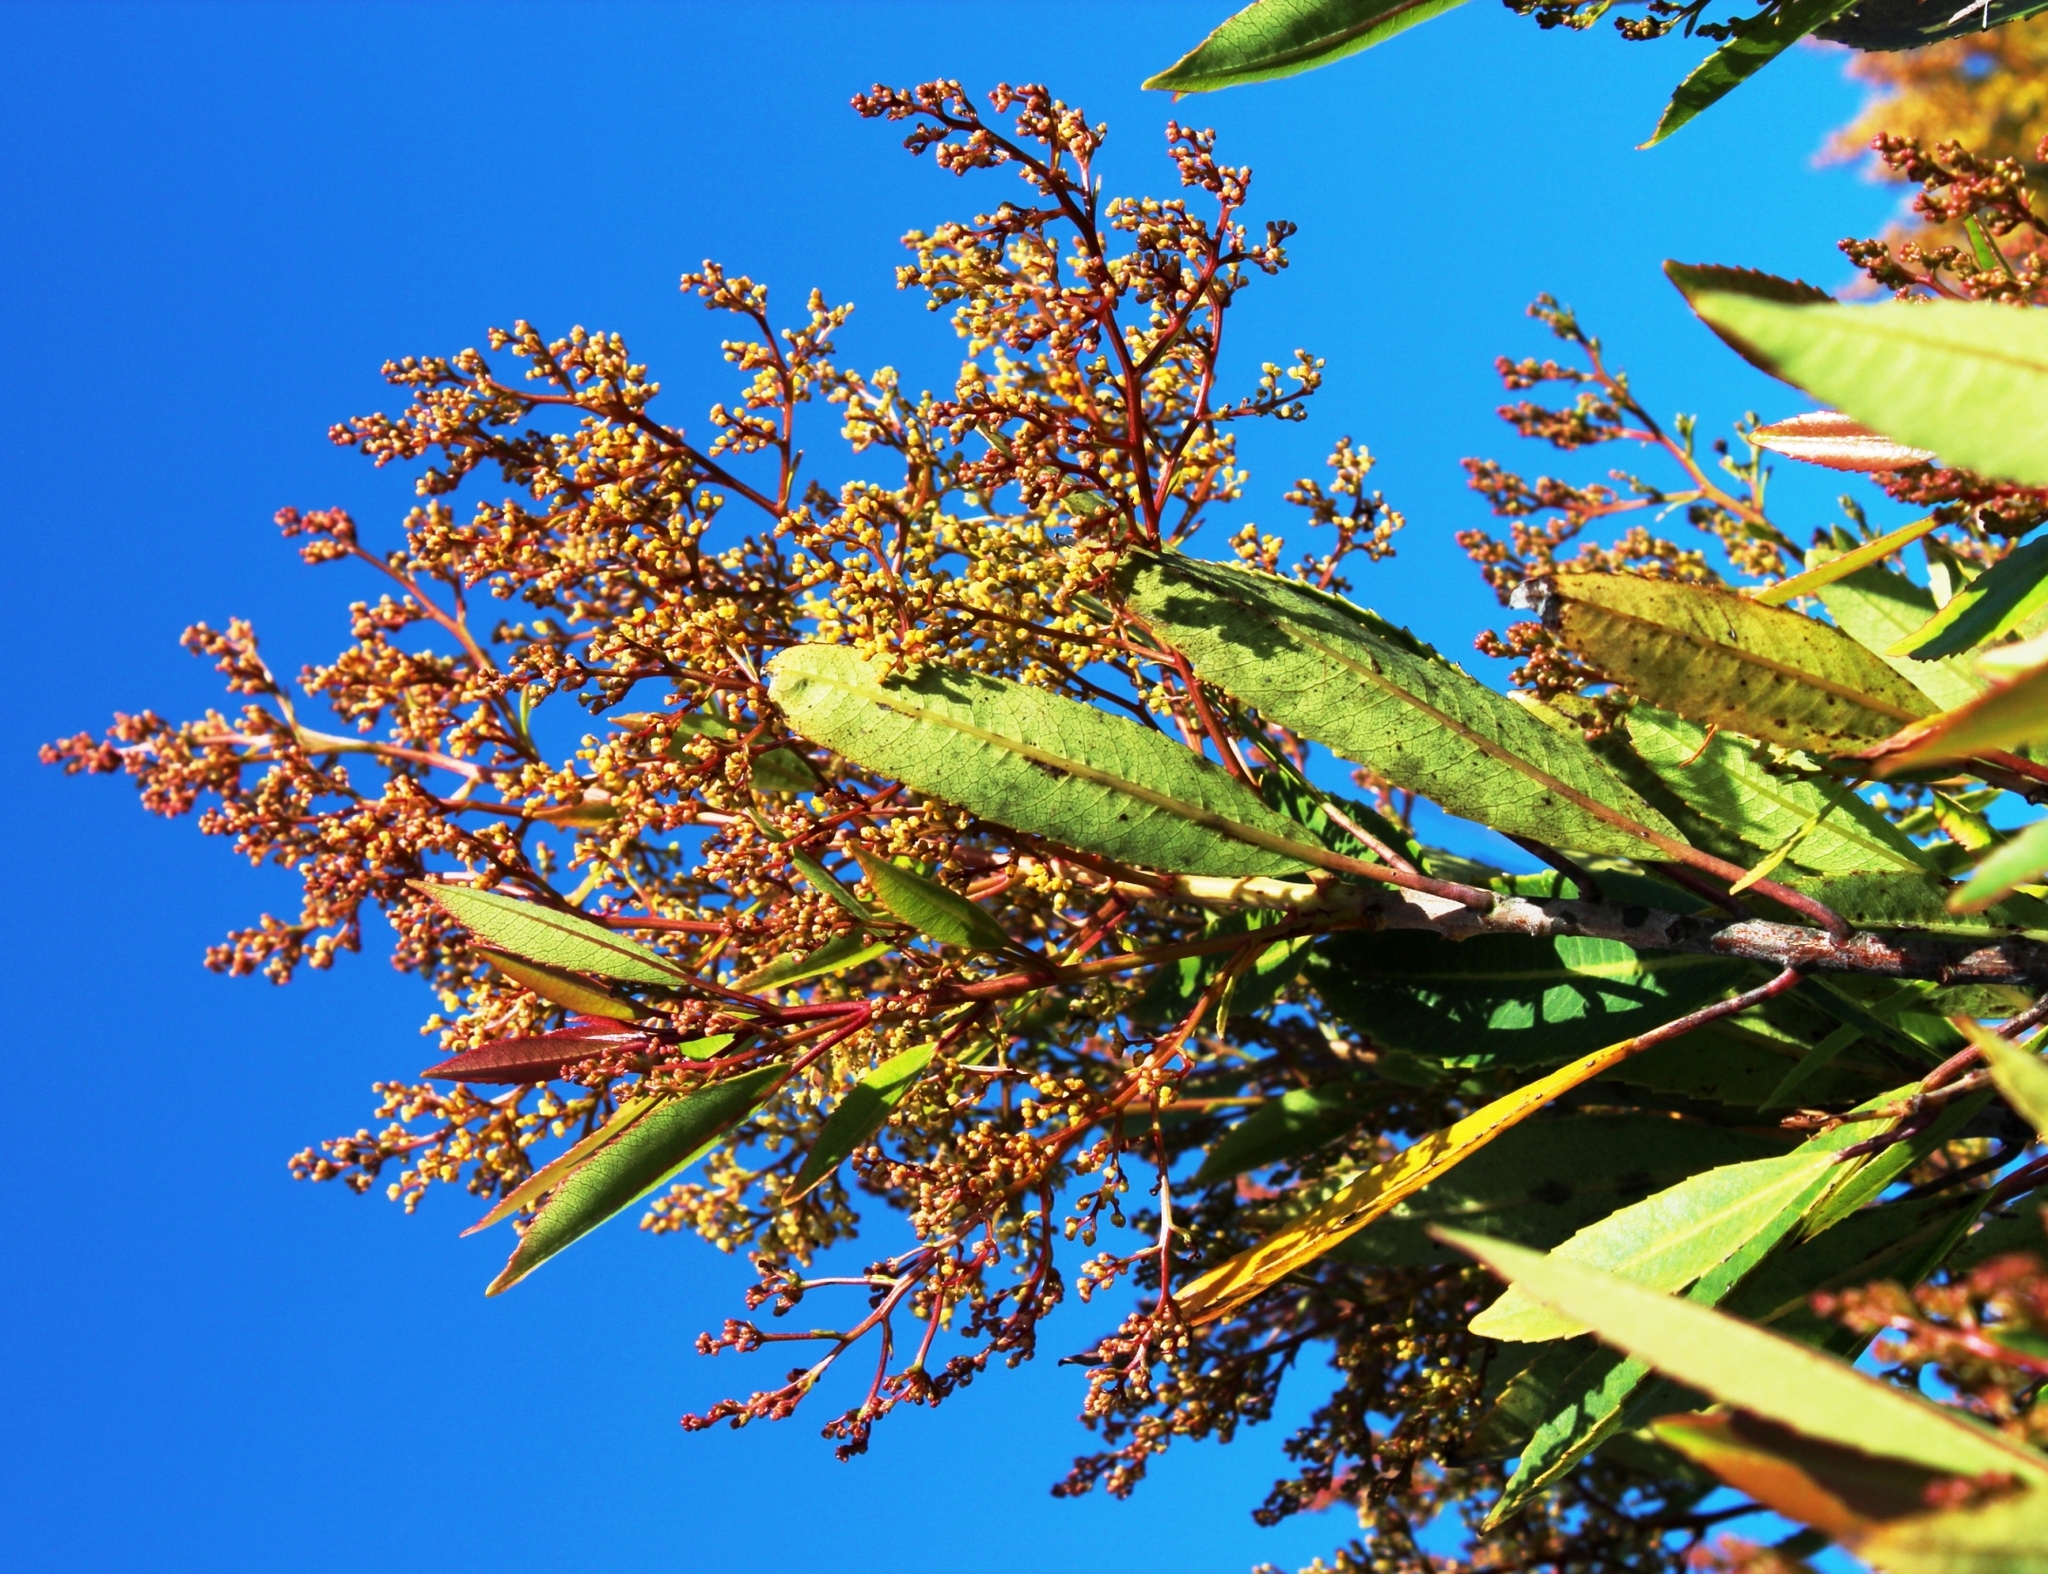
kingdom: Plantae
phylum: Tracheophyta
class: Magnoliopsida
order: Sapindales
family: Anacardiaceae
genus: Laurophyllus
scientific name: Laurophyllus capensis
